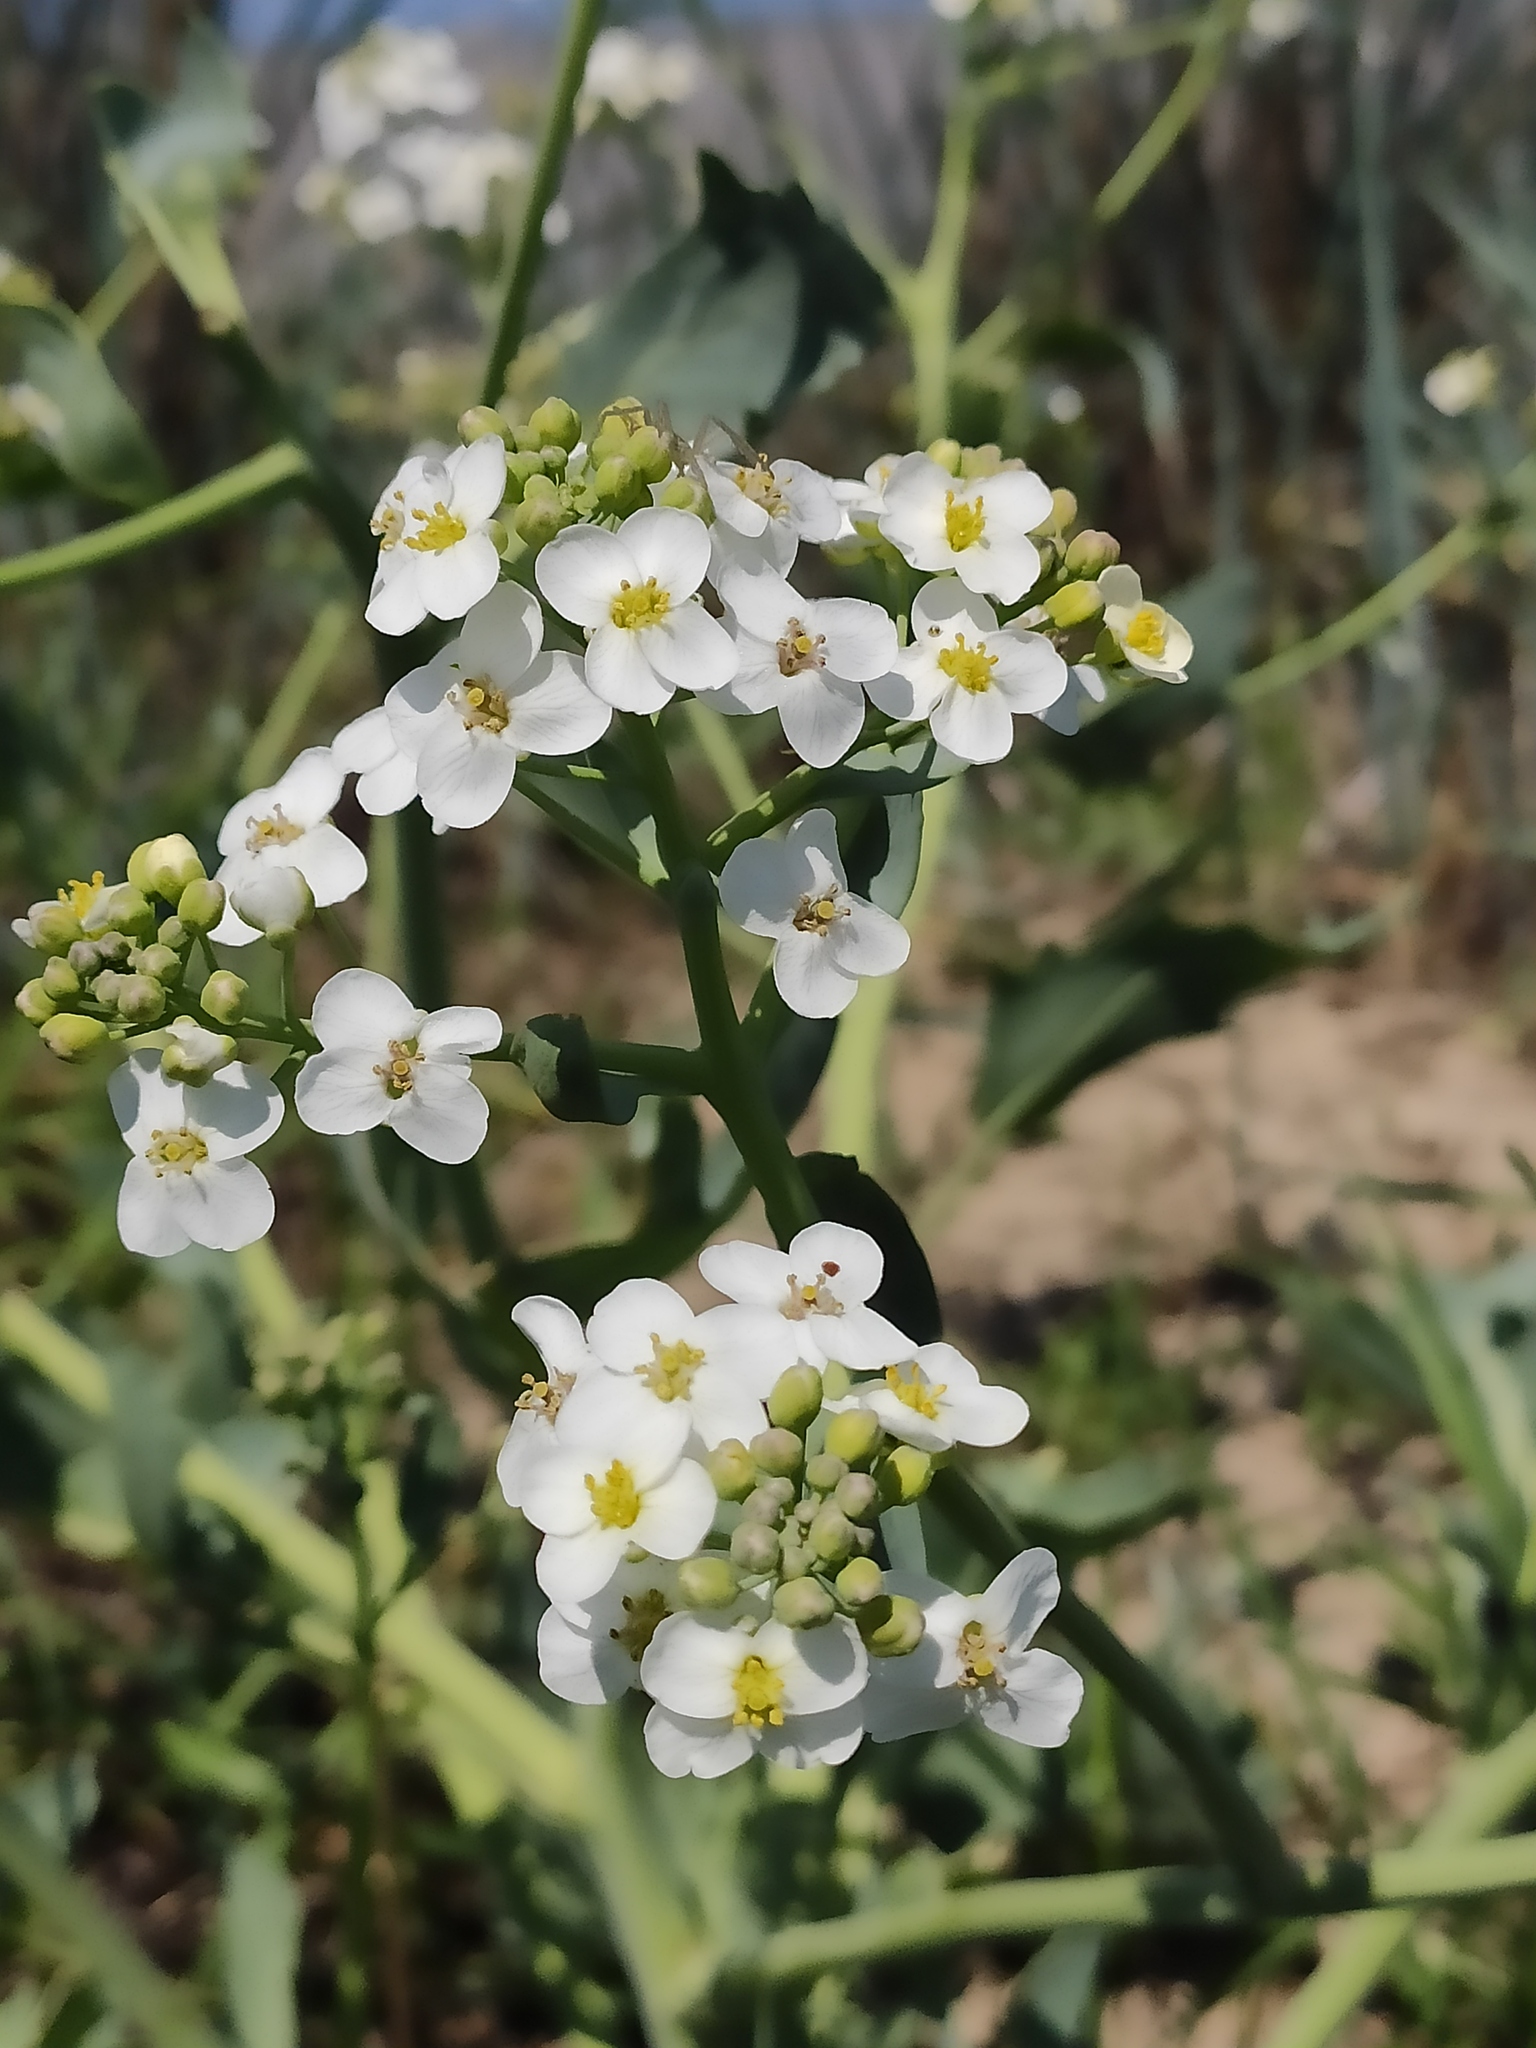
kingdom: Plantae
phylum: Tracheophyta
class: Magnoliopsida
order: Brassicales
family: Brassicaceae
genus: Crambe
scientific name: Crambe maritima
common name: Sea-kale
